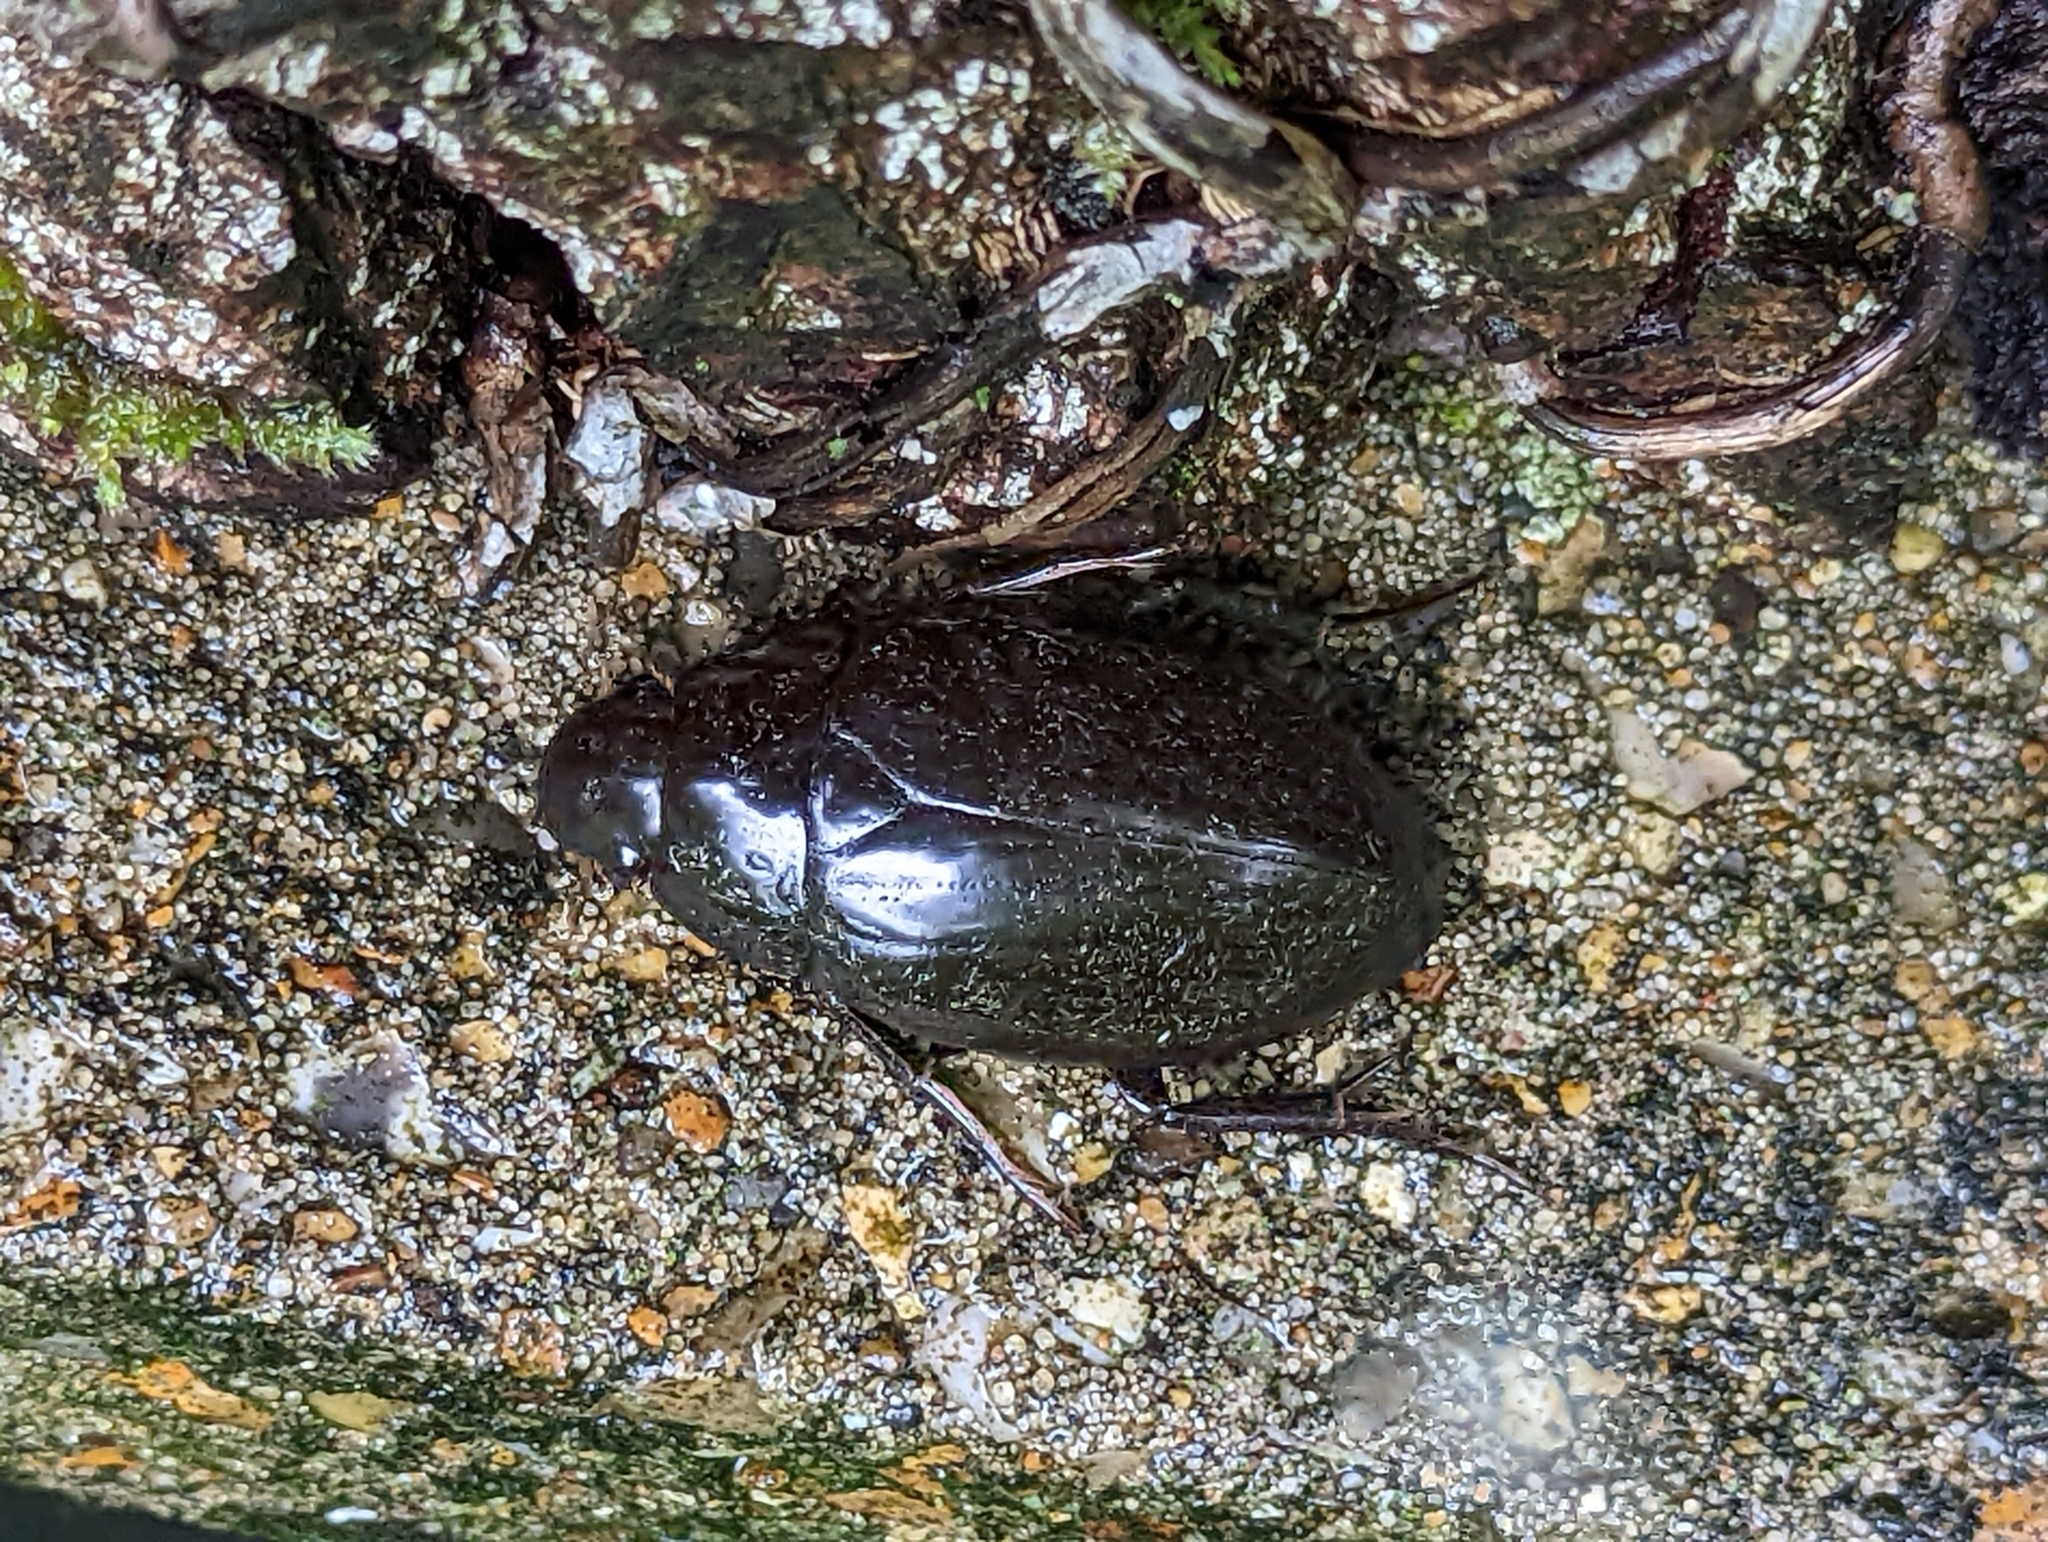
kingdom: Animalia
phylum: Arthropoda
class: Insecta
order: Coleoptera
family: Hydrophilidae
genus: Hydrophilus
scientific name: Hydrophilus piceus
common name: Great silver water beetle
